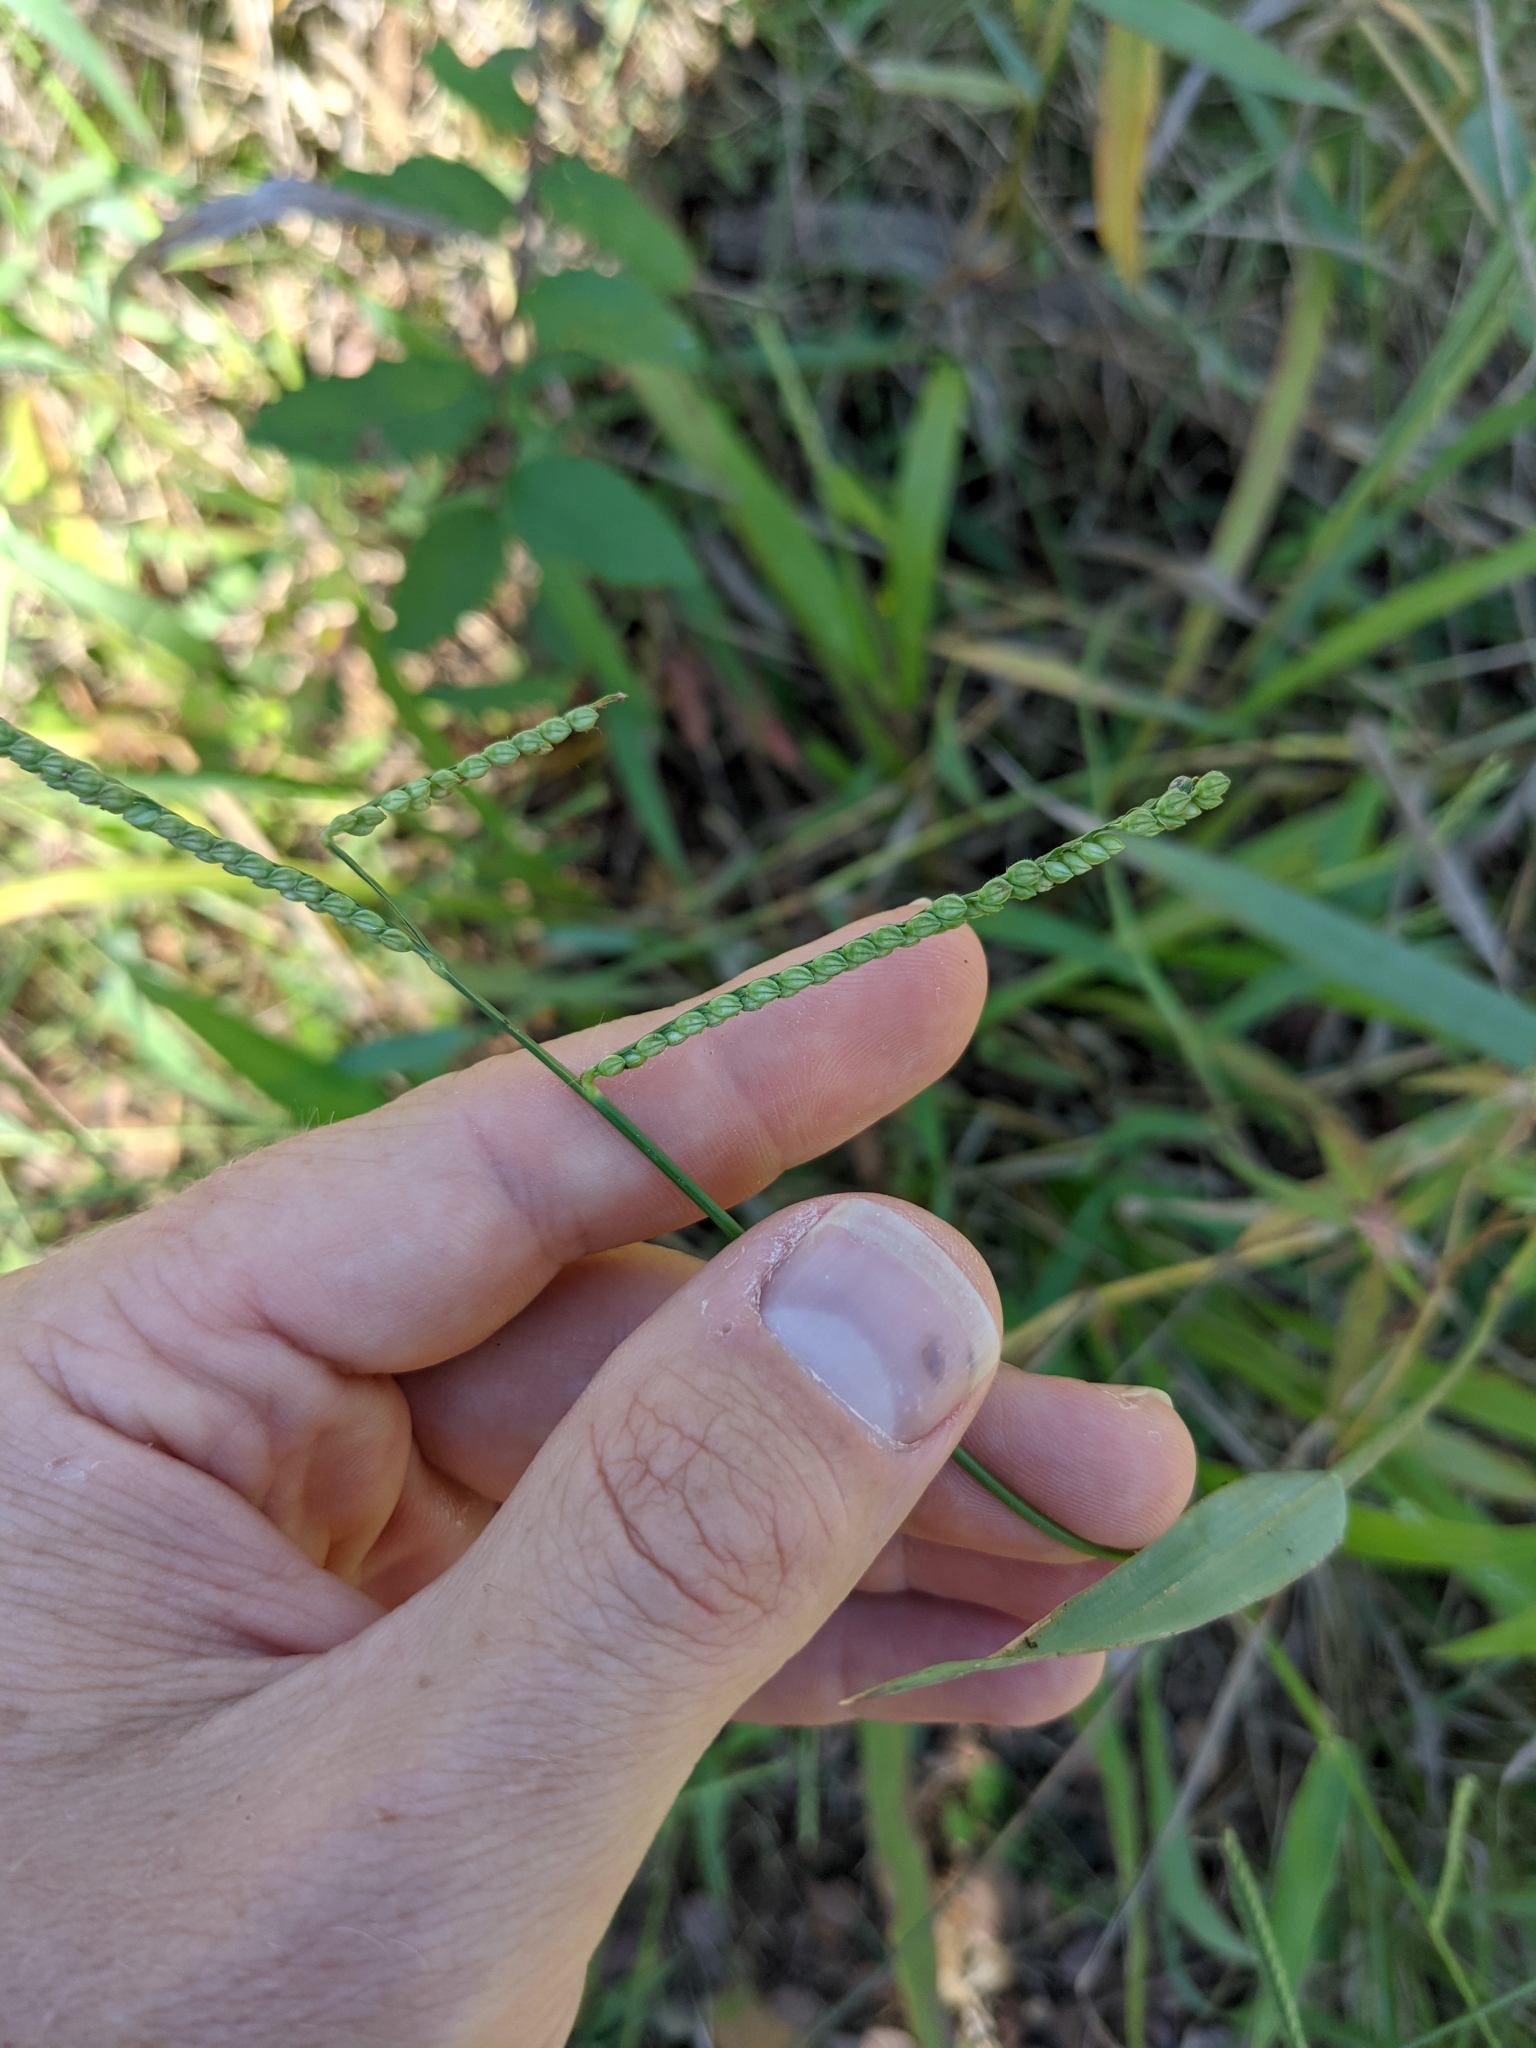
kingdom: Plantae
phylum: Tracheophyta
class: Liliopsida
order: Poales
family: Poaceae
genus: Paspalum
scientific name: Paspalum pubiflorum
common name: Hairy-seed paspalum
